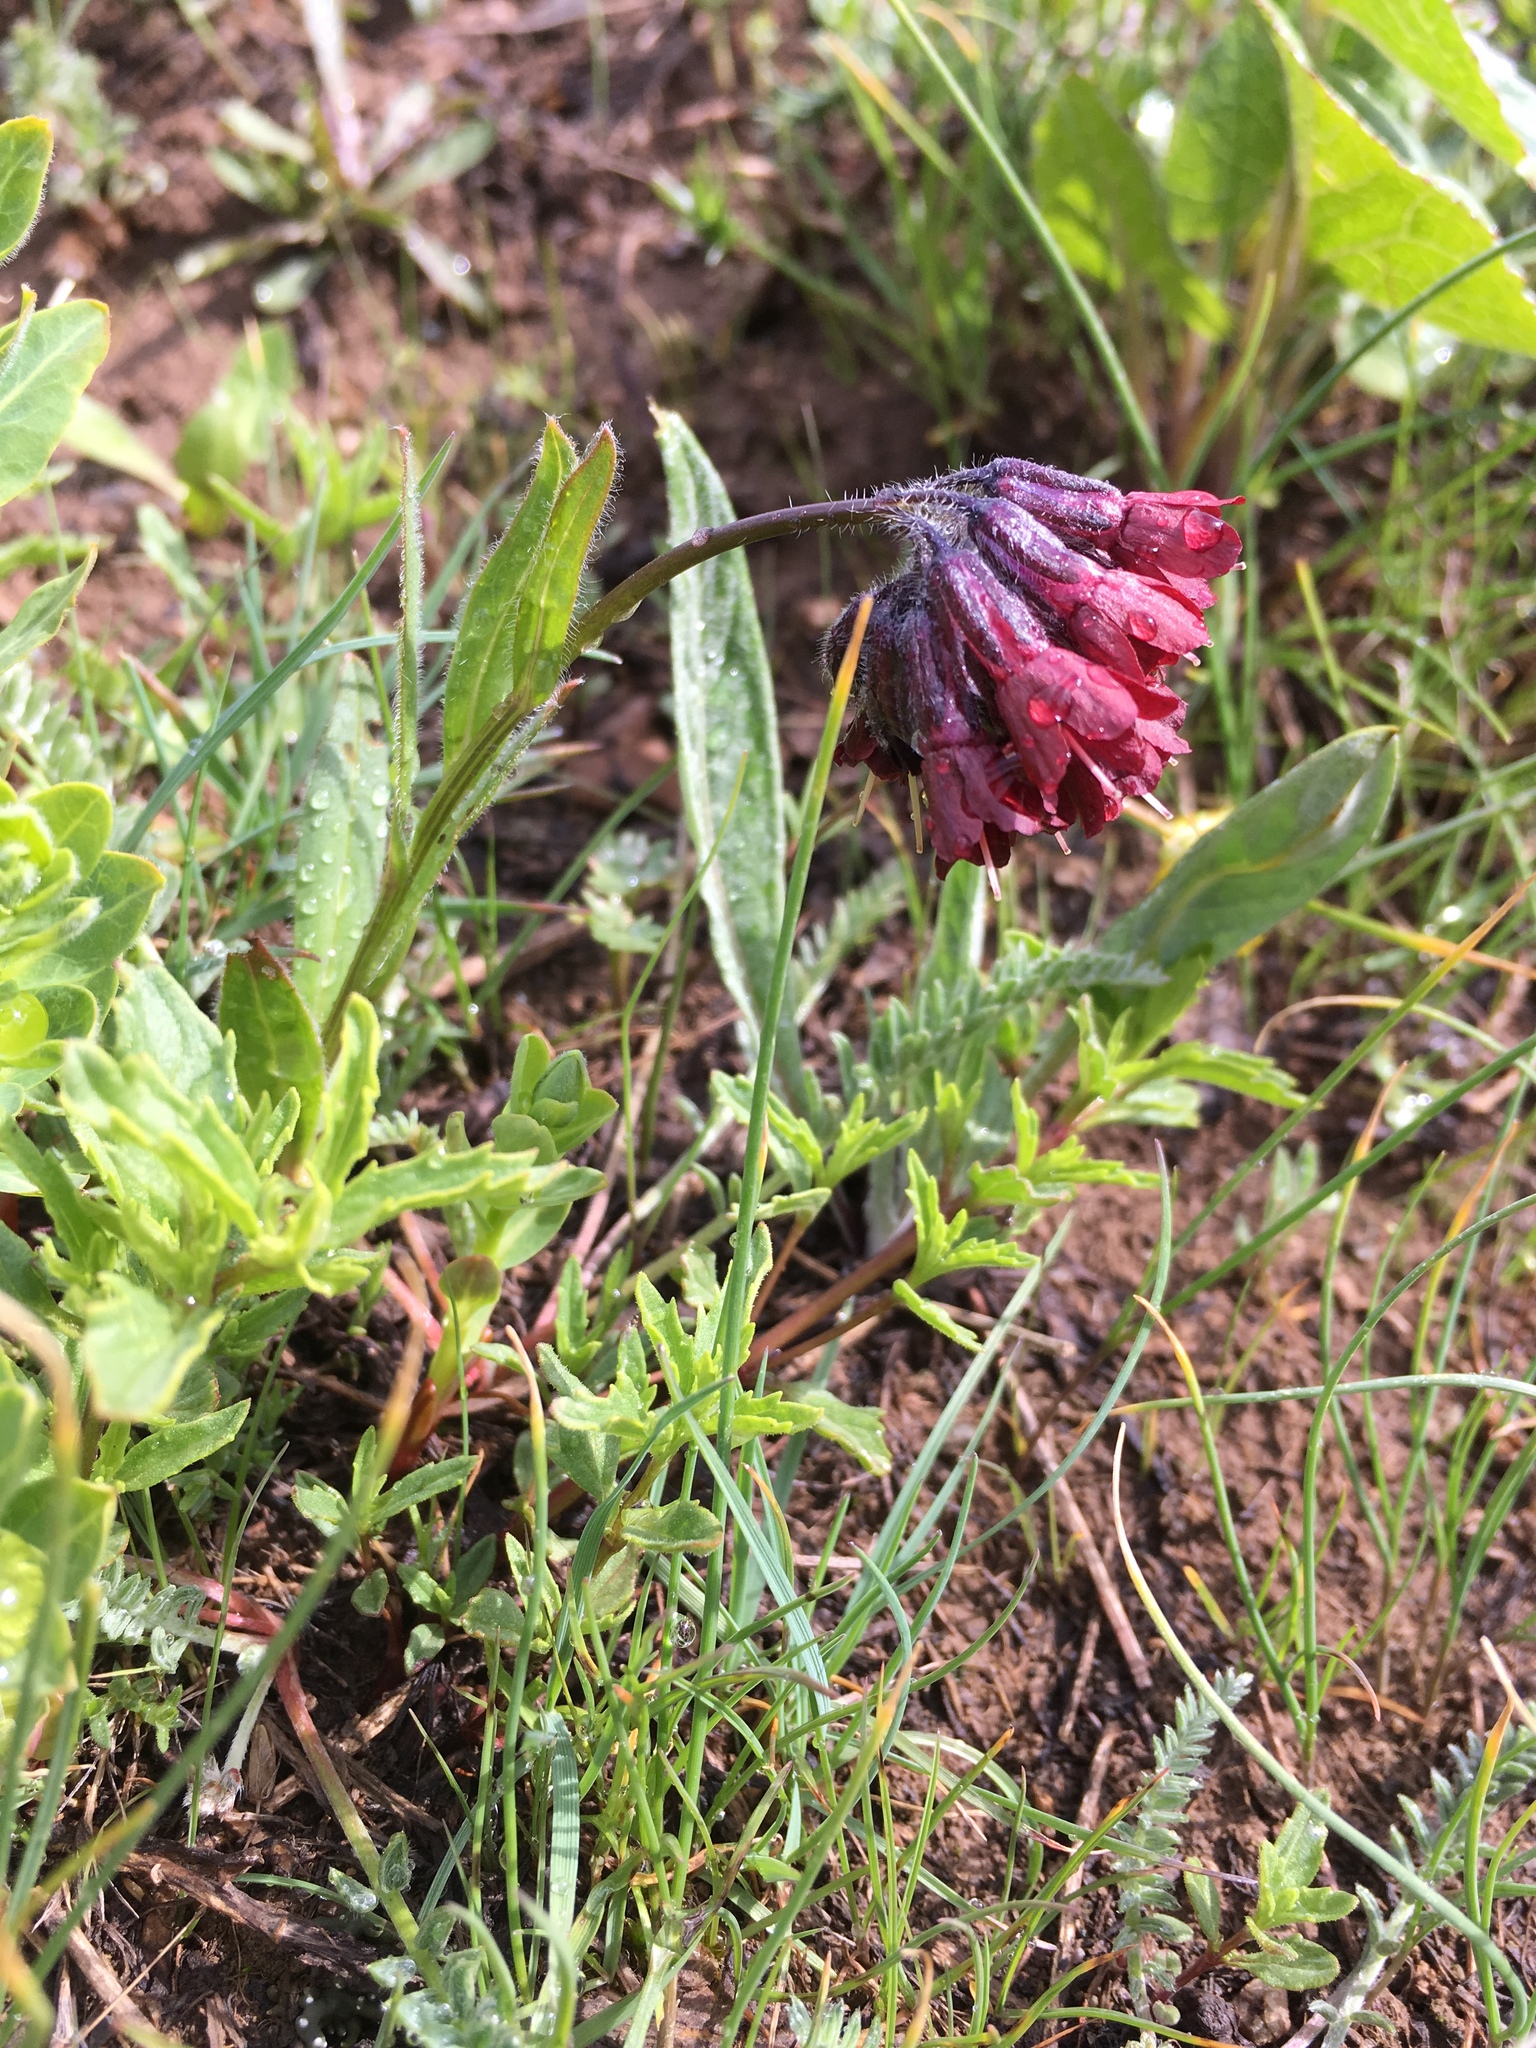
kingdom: Plantae
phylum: Tracheophyta
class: Magnoliopsida
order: Boraginales
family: Boraginaceae
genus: Lindelofia
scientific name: Lindelofia olgae
